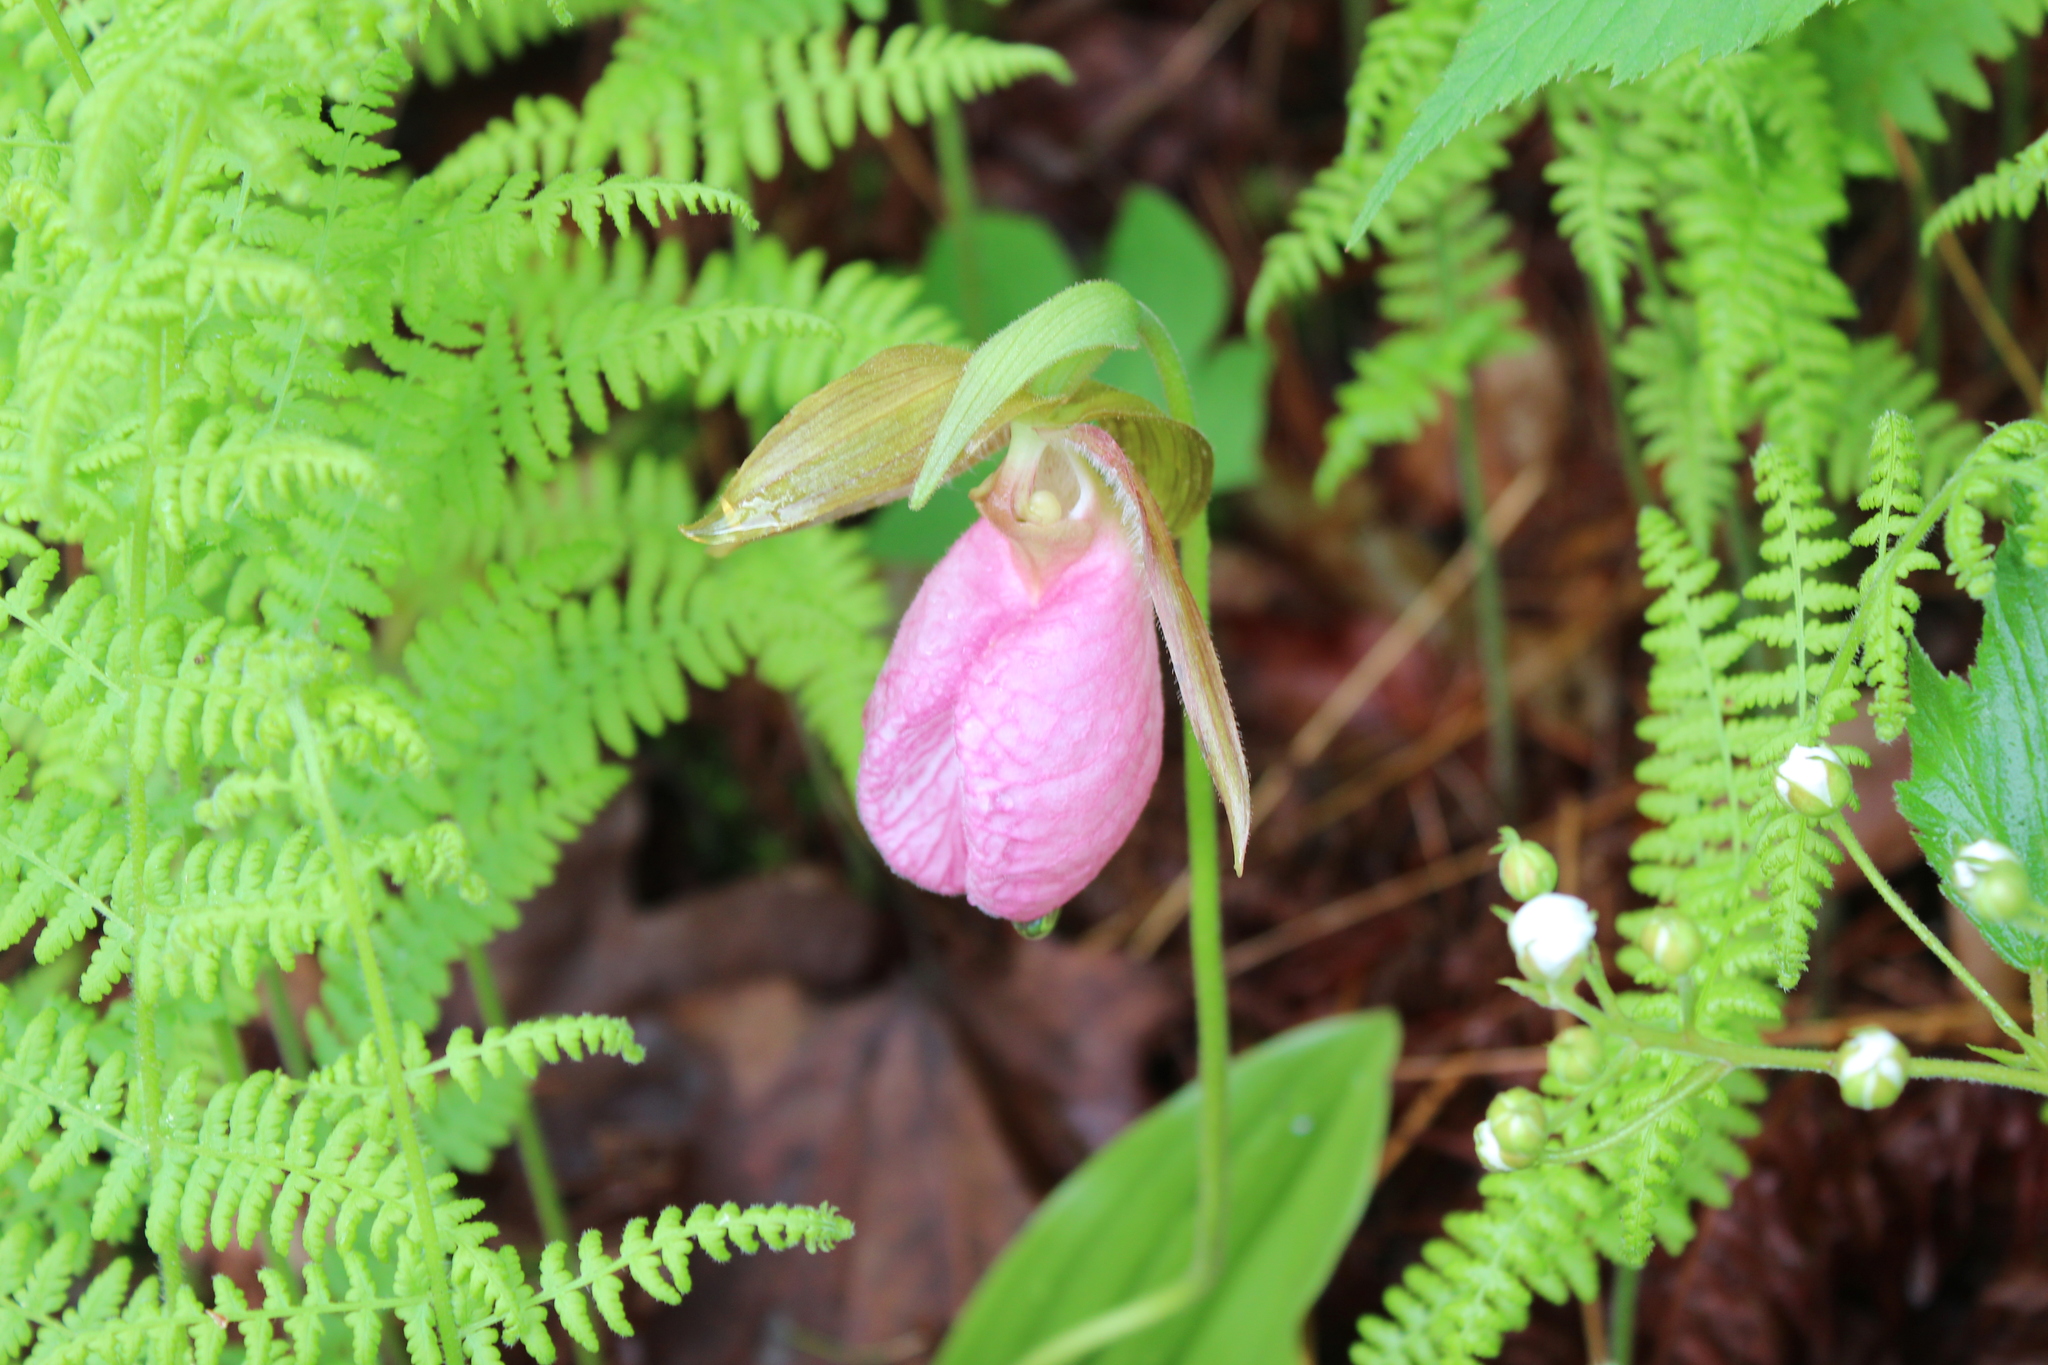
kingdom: Plantae
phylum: Tracheophyta
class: Liliopsida
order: Asparagales
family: Orchidaceae
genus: Cypripedium
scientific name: Cypripedium acaule
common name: Pink lady's-slipper
